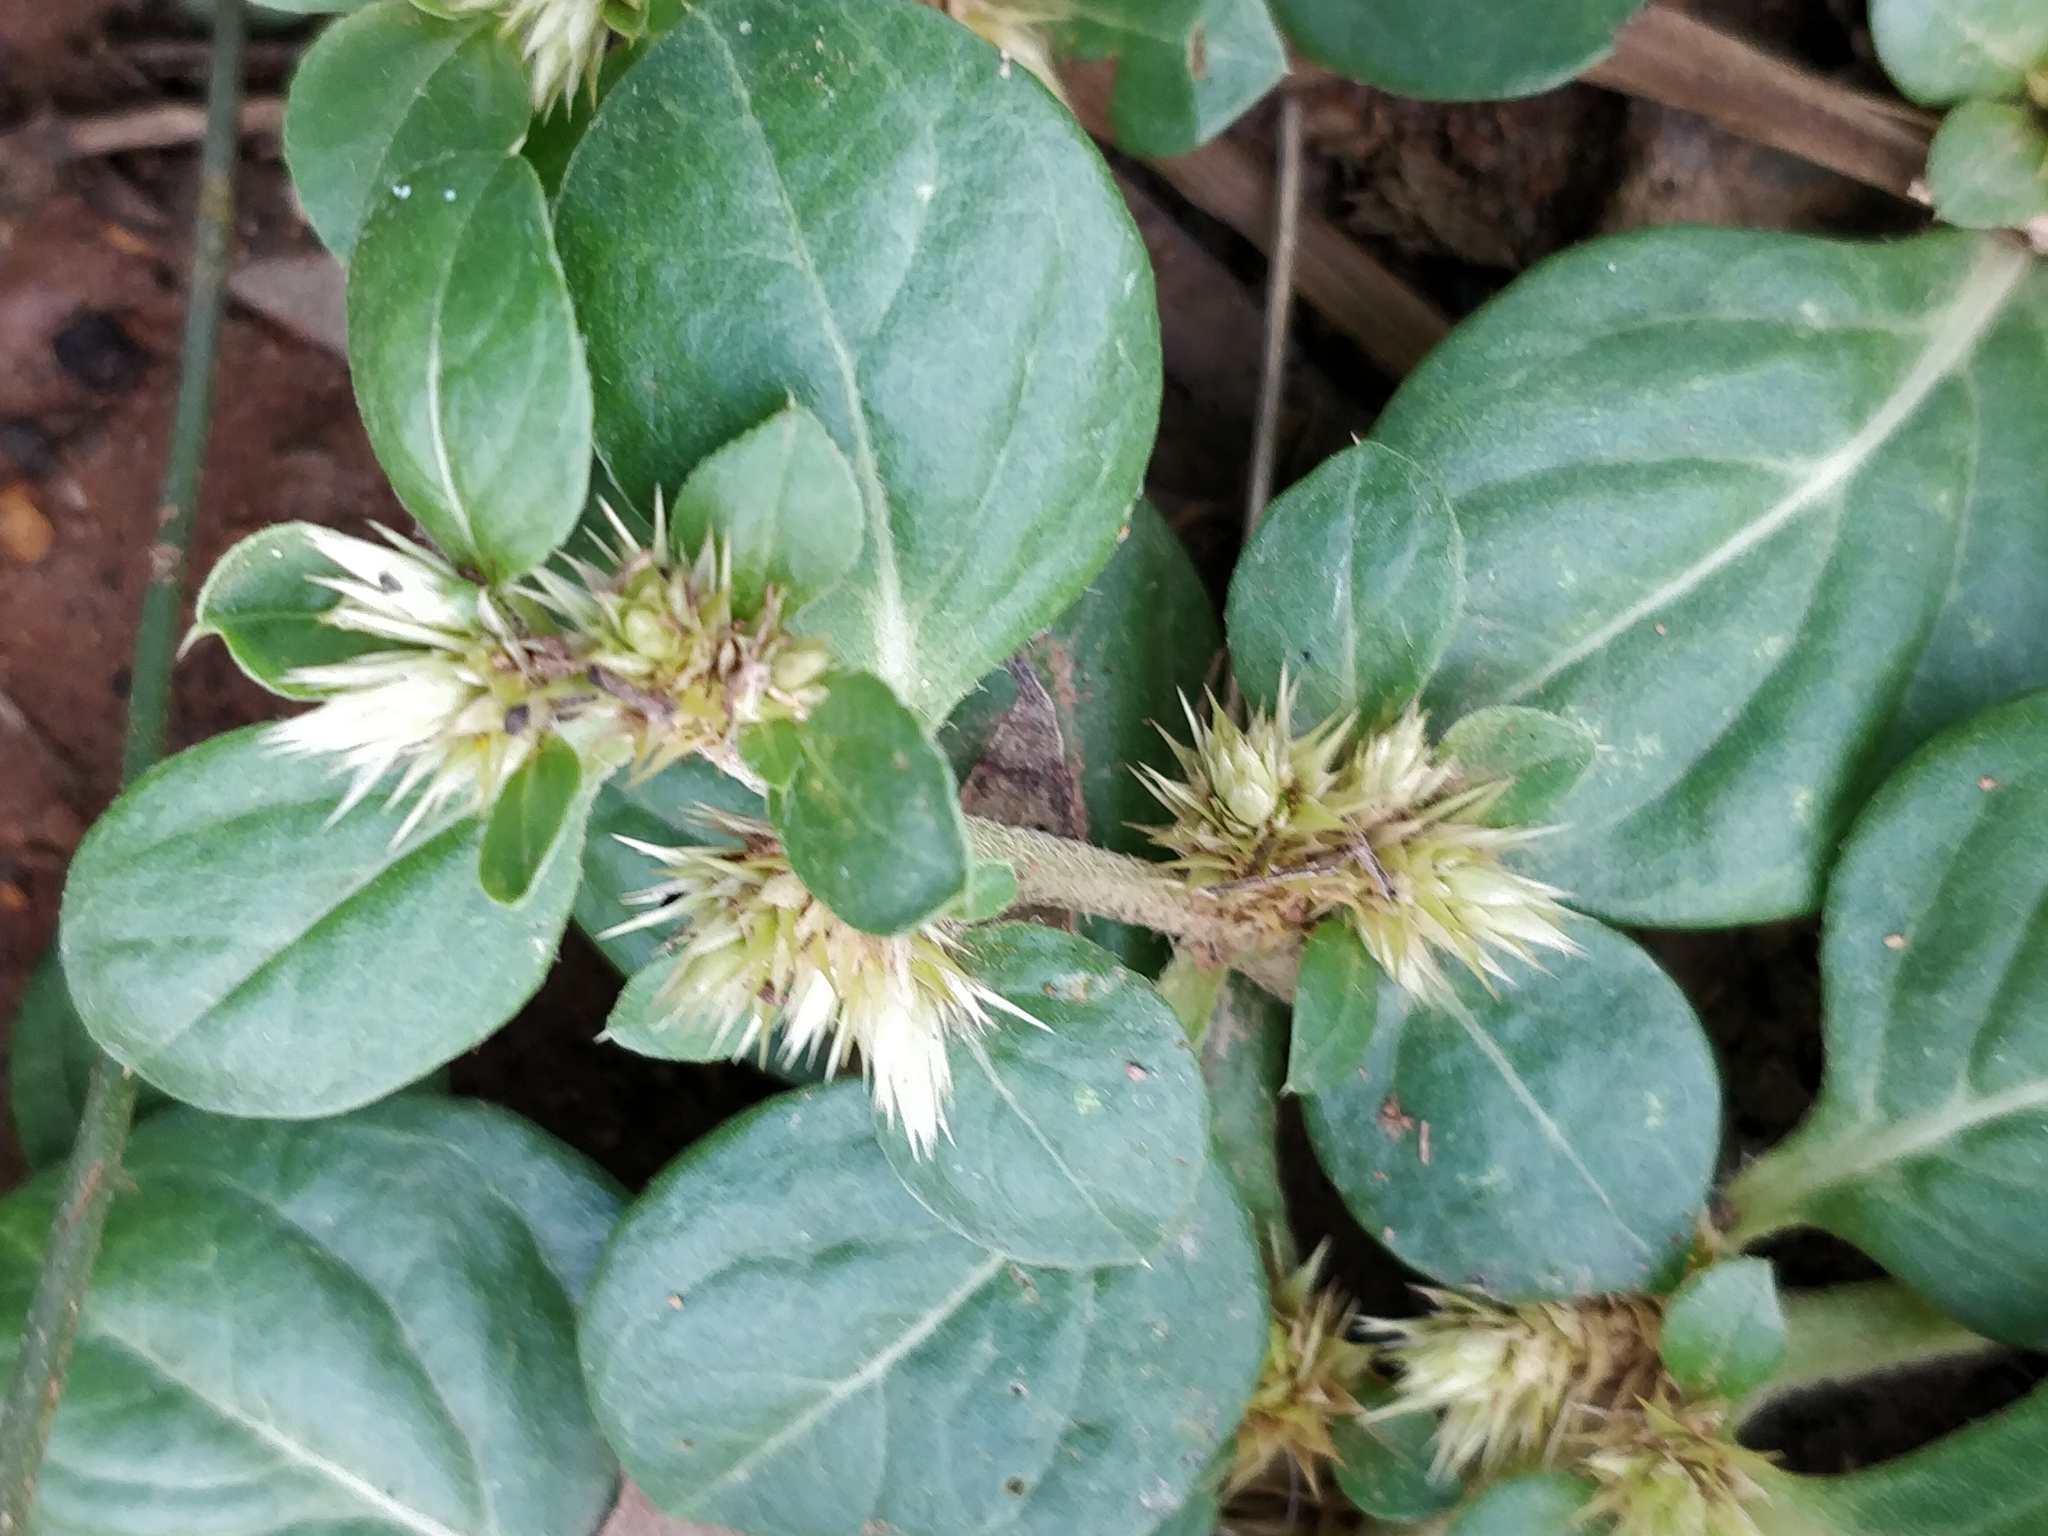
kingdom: Plantae
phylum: Tracheophyta
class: Magnoliopsida
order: Caryophyllales
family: Amaranthaceae
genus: Alternanthera
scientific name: Alternanthera pungens
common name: Khakiweed
